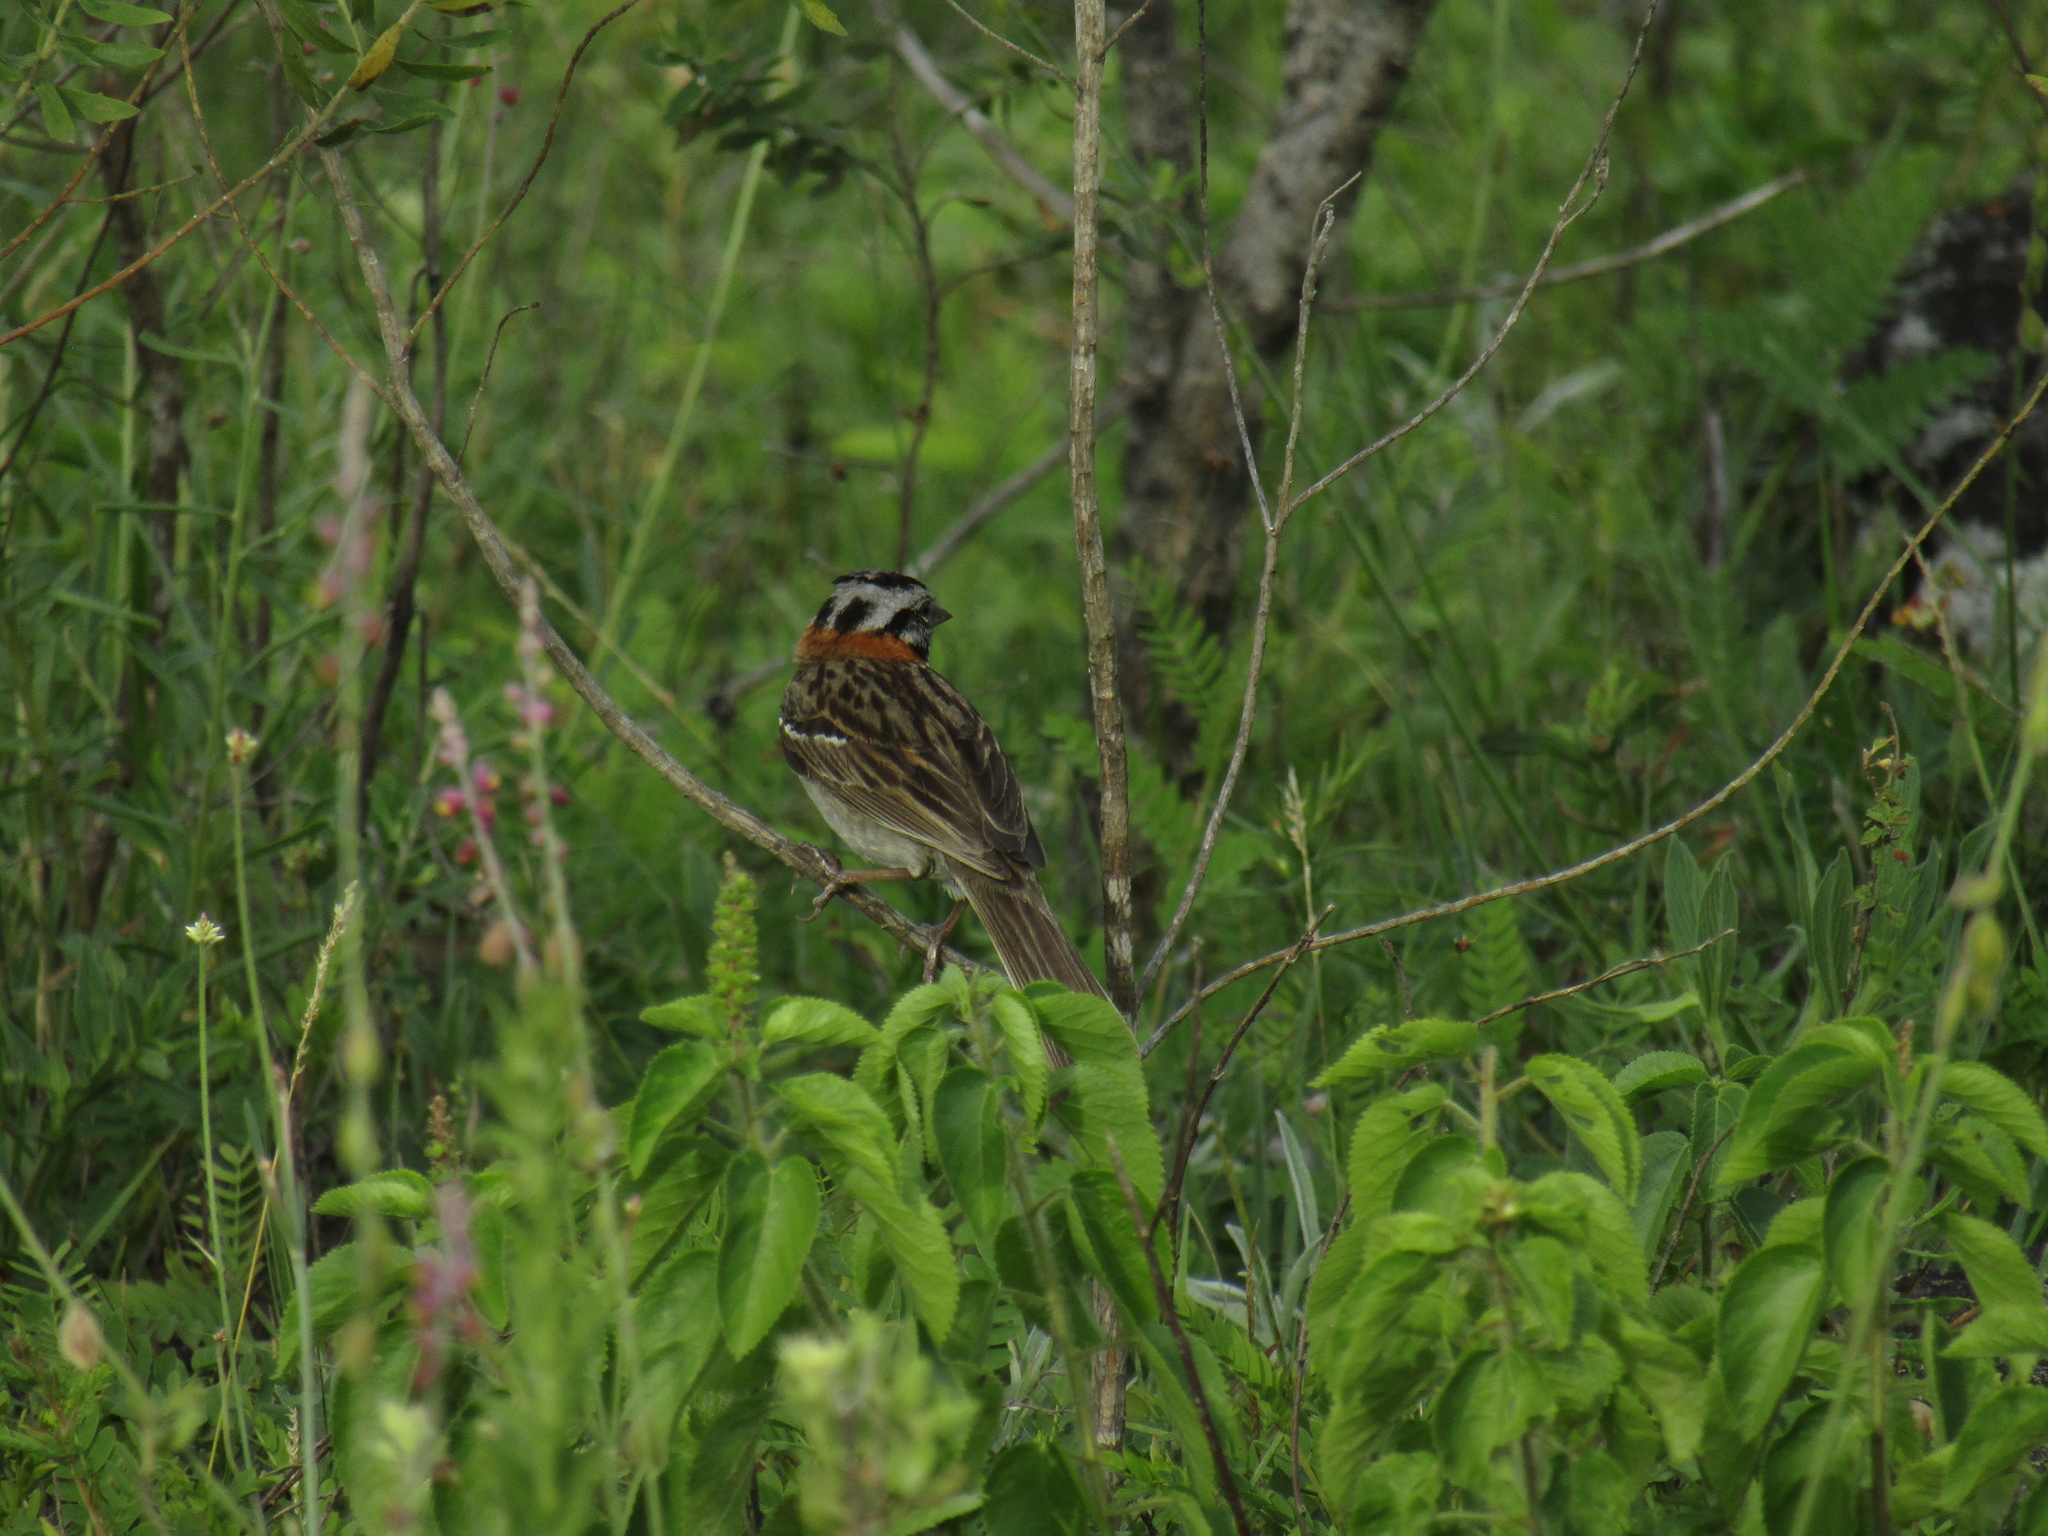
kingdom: Animalia
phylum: Chordata
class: Aves
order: Passeriformes
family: Passerellidae
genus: Zonotrichia
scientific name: Zonotrichia capensis
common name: Rufous-collared sparrow
